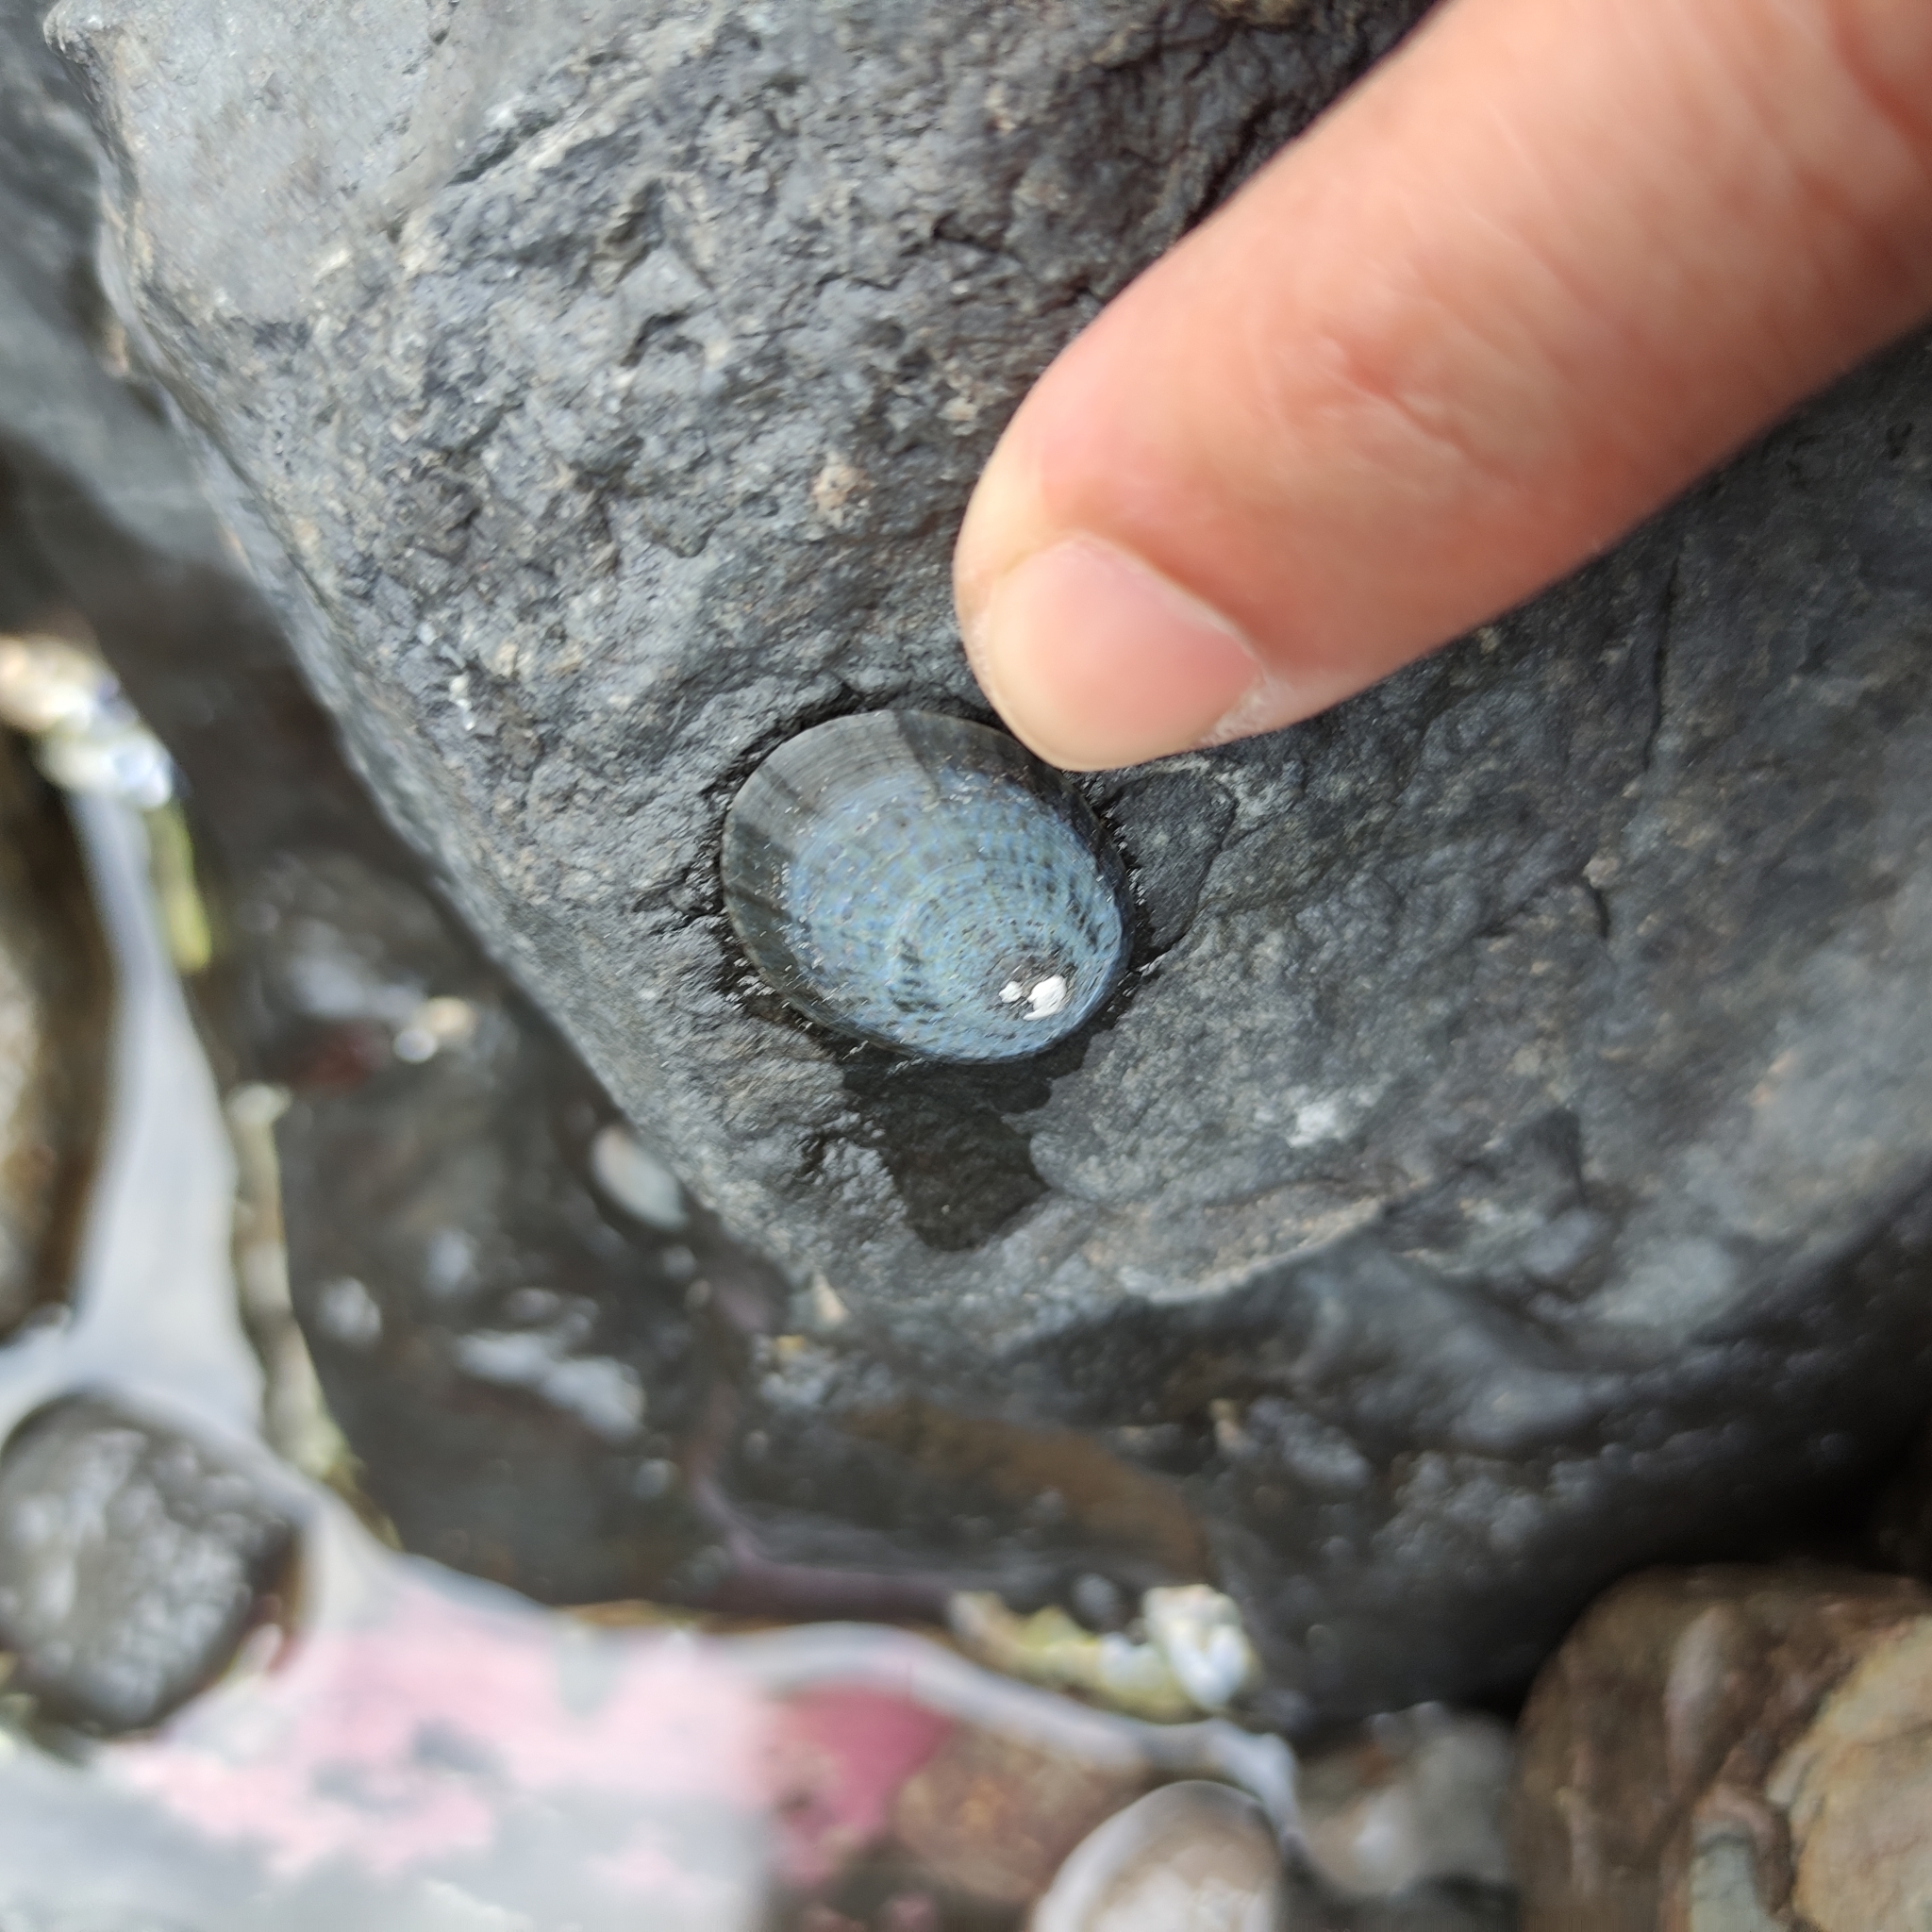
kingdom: Animalia
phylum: Mollusca
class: Gastropoda
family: Nacellidae
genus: Cellana
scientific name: Cellana radians
